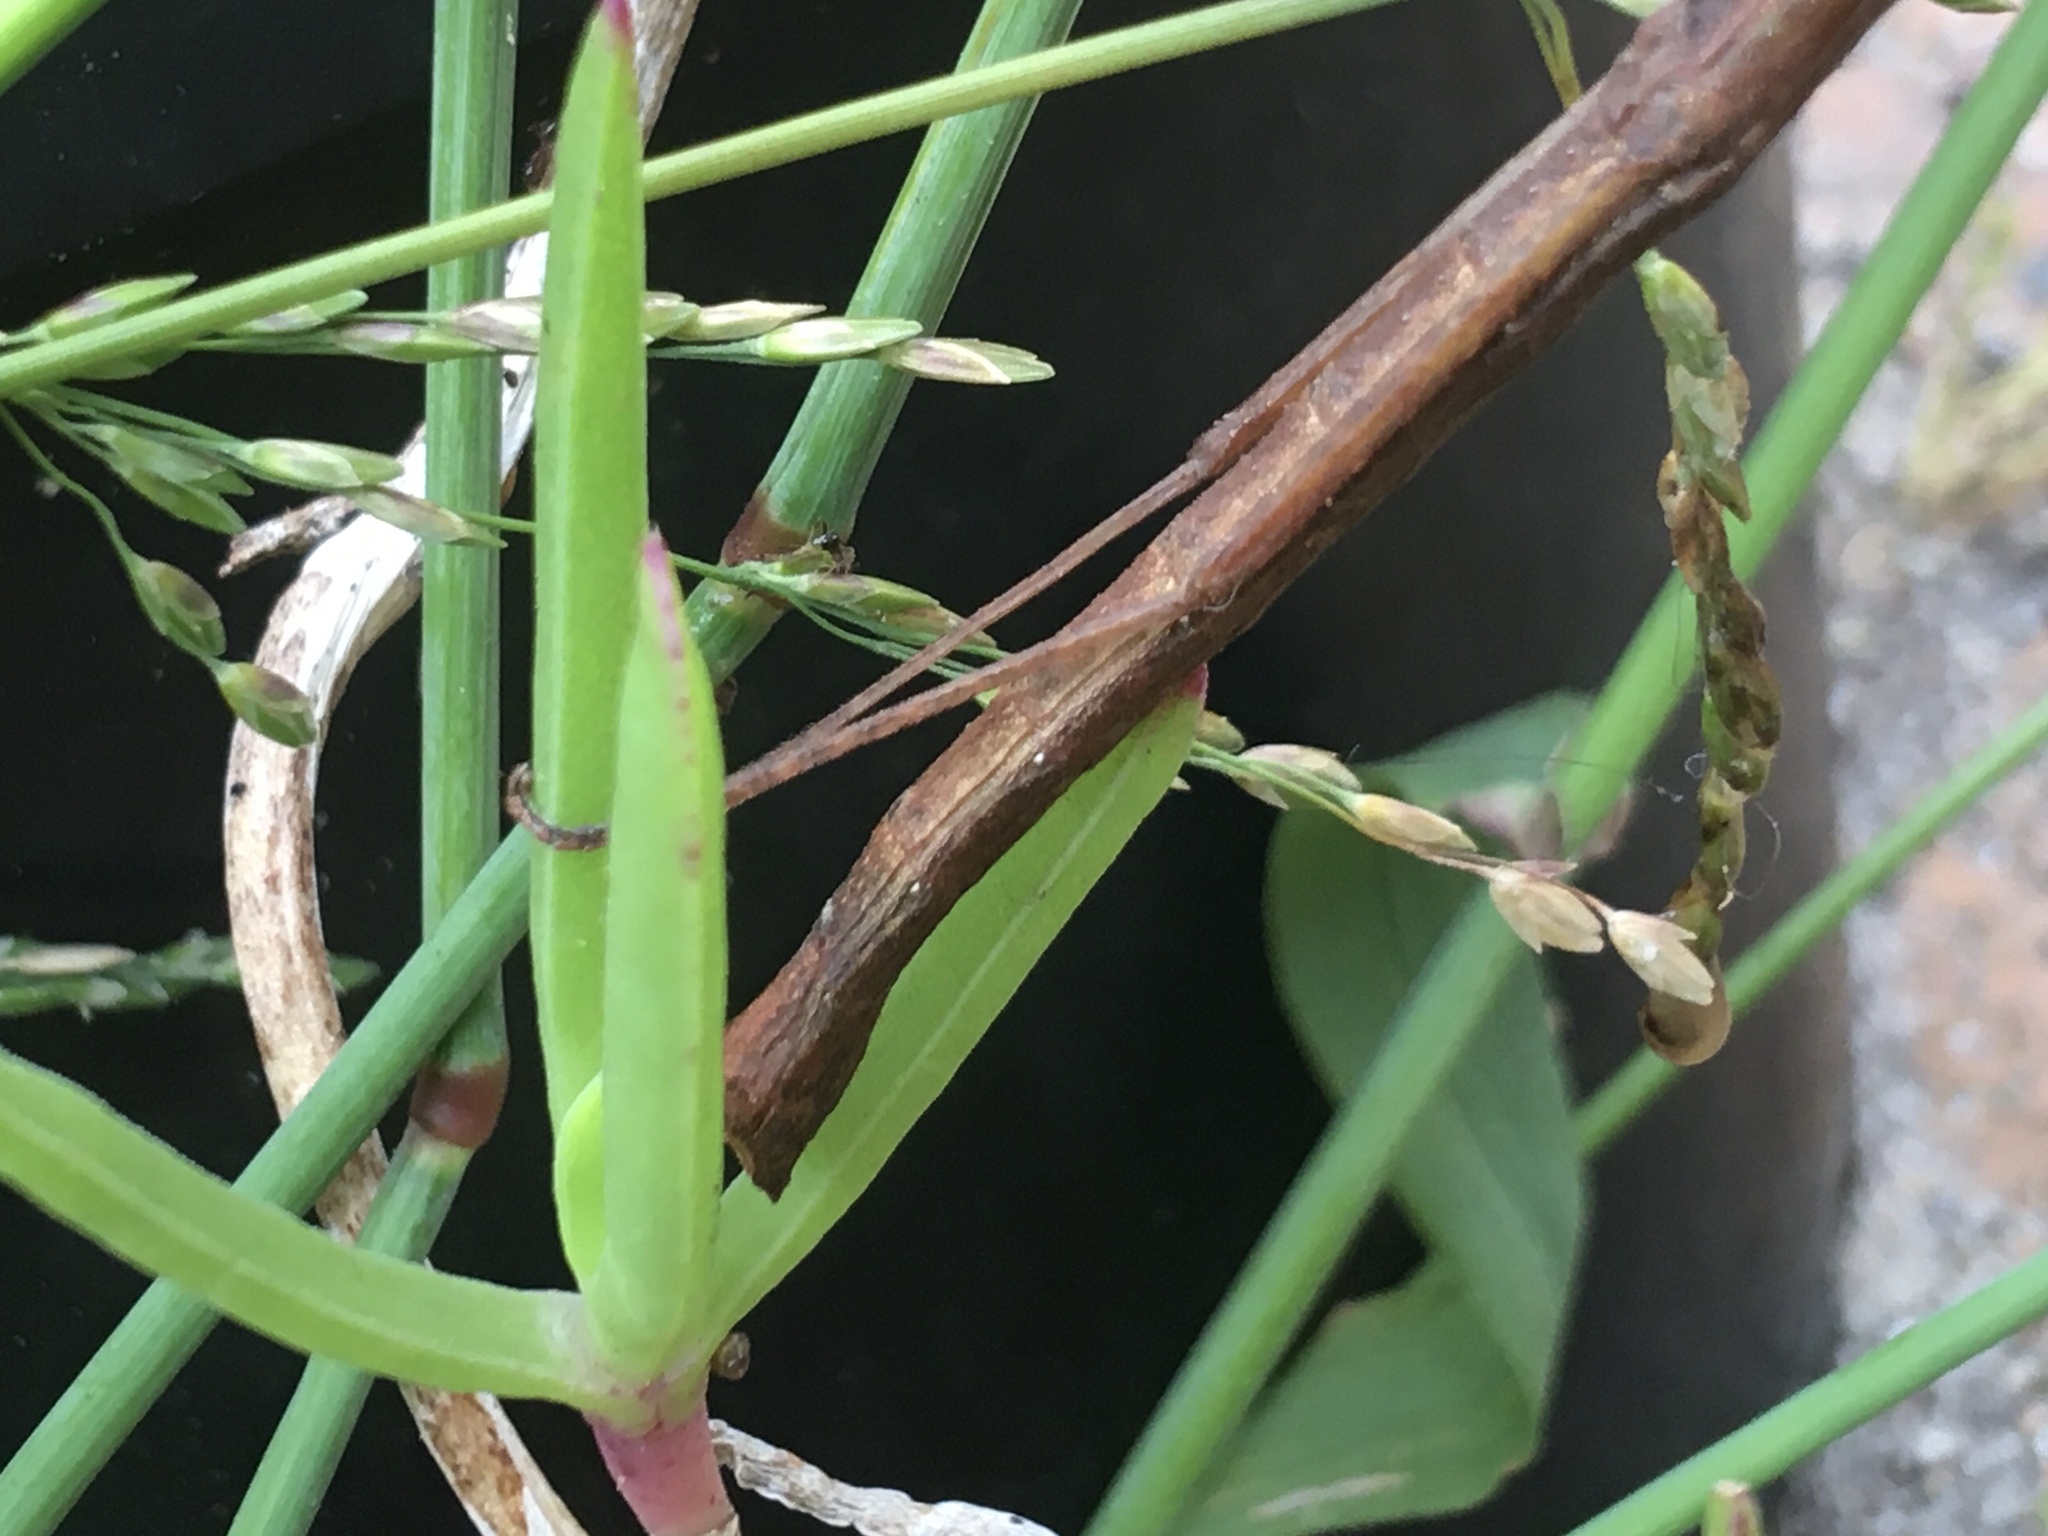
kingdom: Animalia
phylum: Arthropoda
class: Insecta
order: Phasmida
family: Lonchodidae
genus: Carausius
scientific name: Carausius morosus
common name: Indian stick insect
